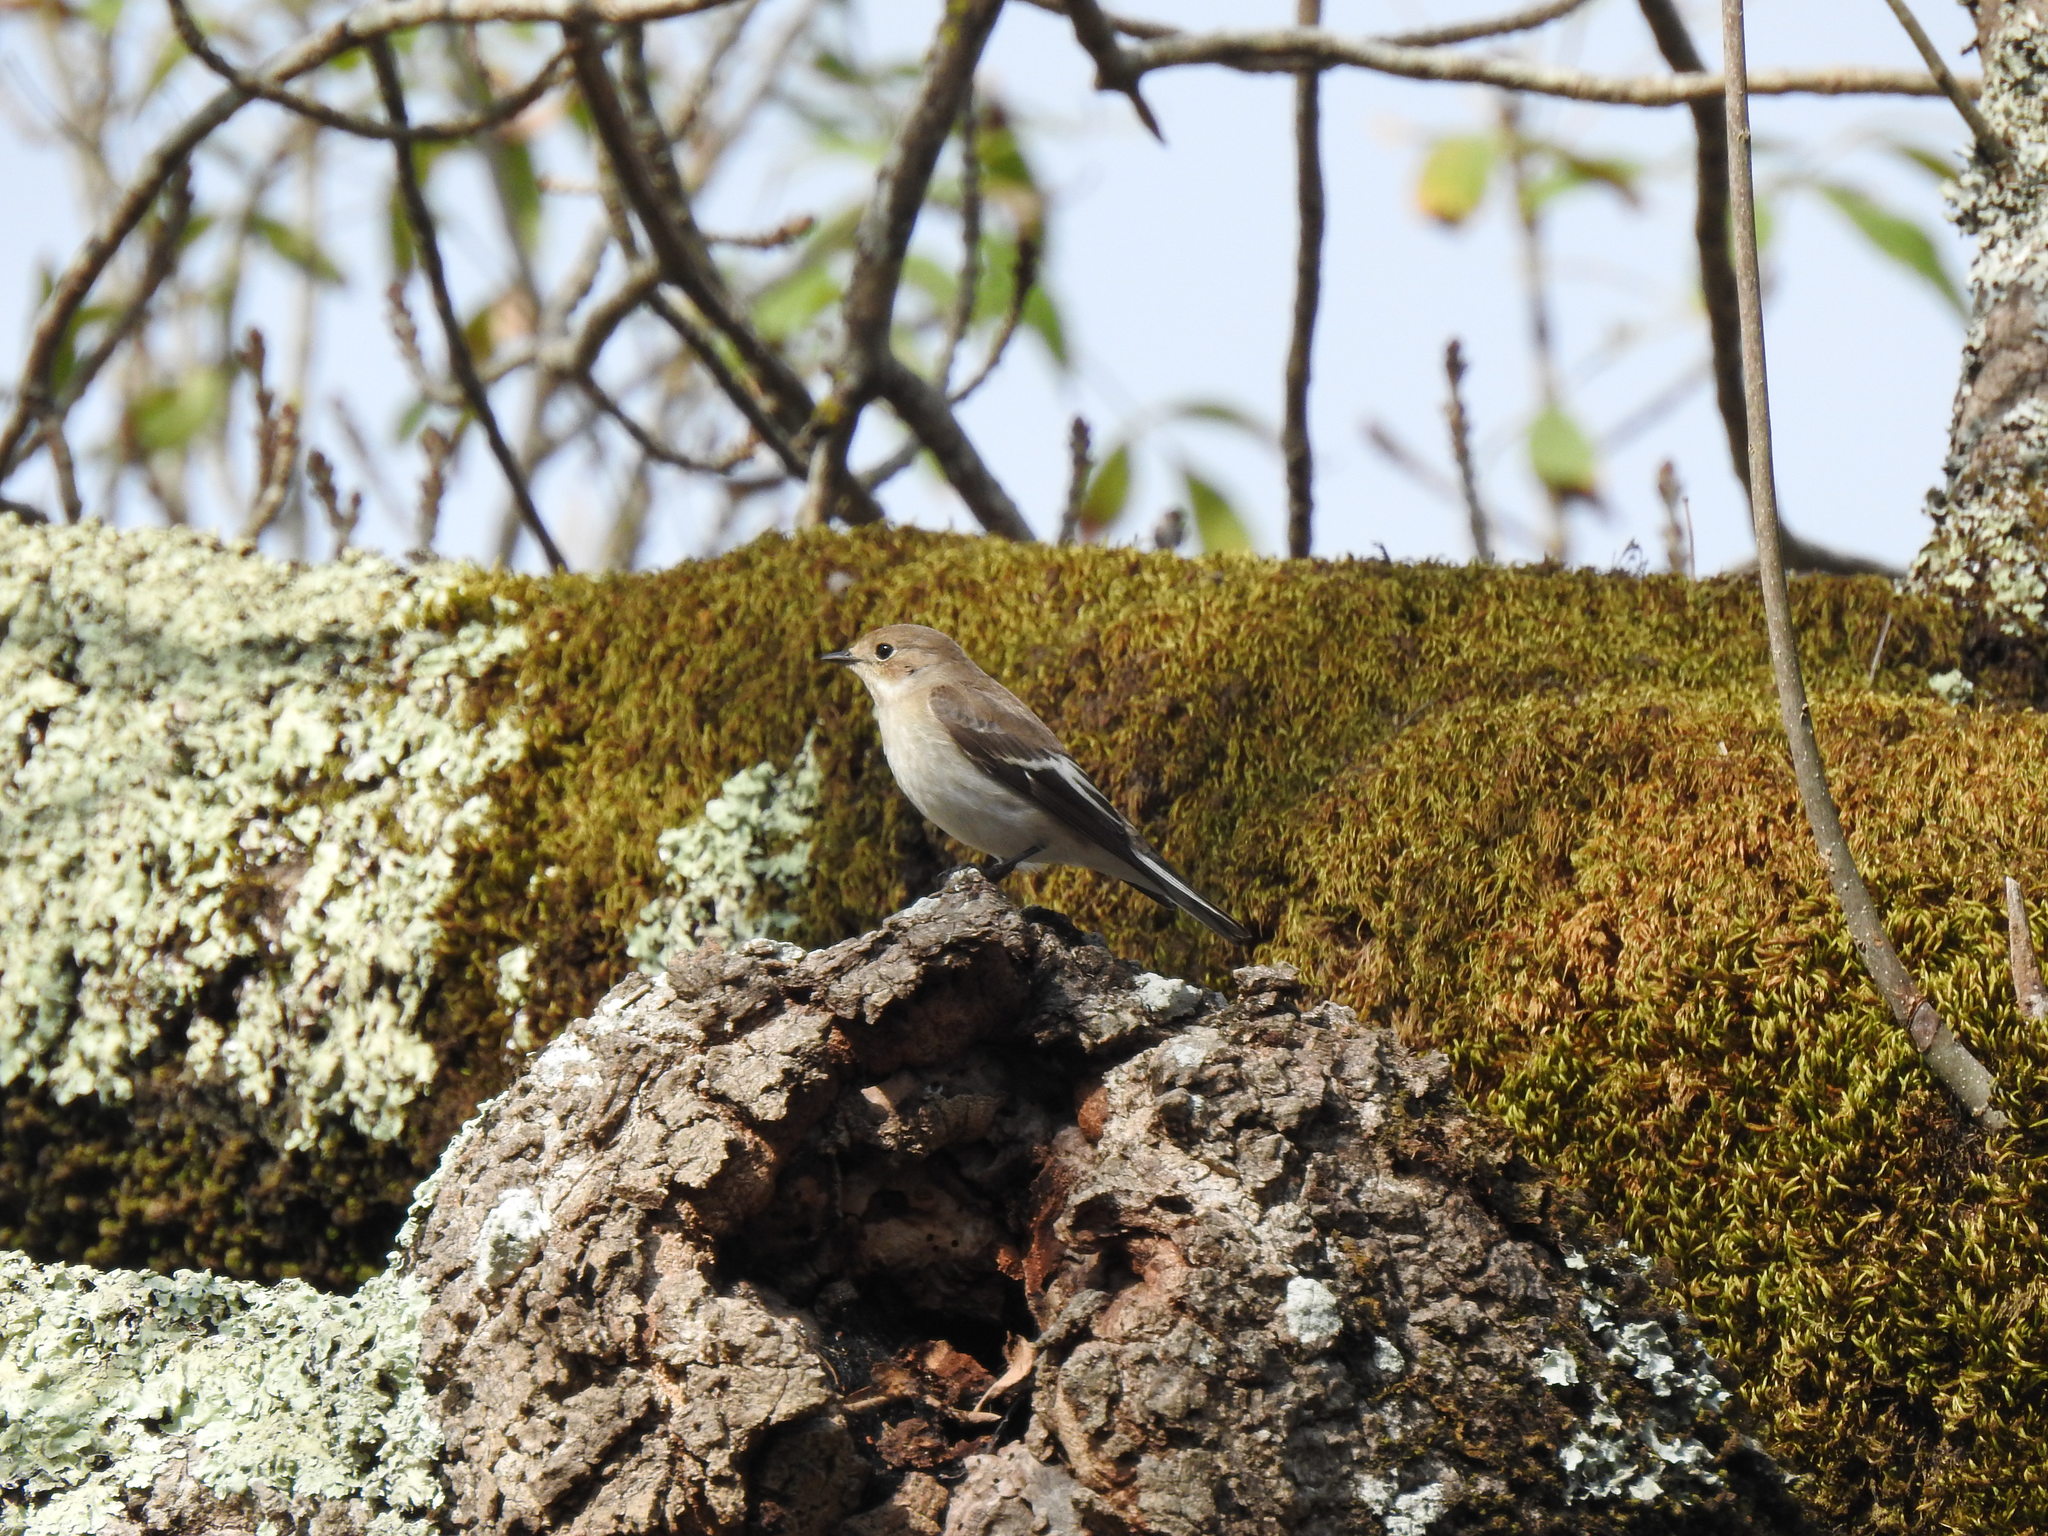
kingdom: Animalia
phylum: Chordata
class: Aves
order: Passeriformes
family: Muscicapidae
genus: Ficedula
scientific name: Ficedula hypoleuca
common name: European pied flycatcher
